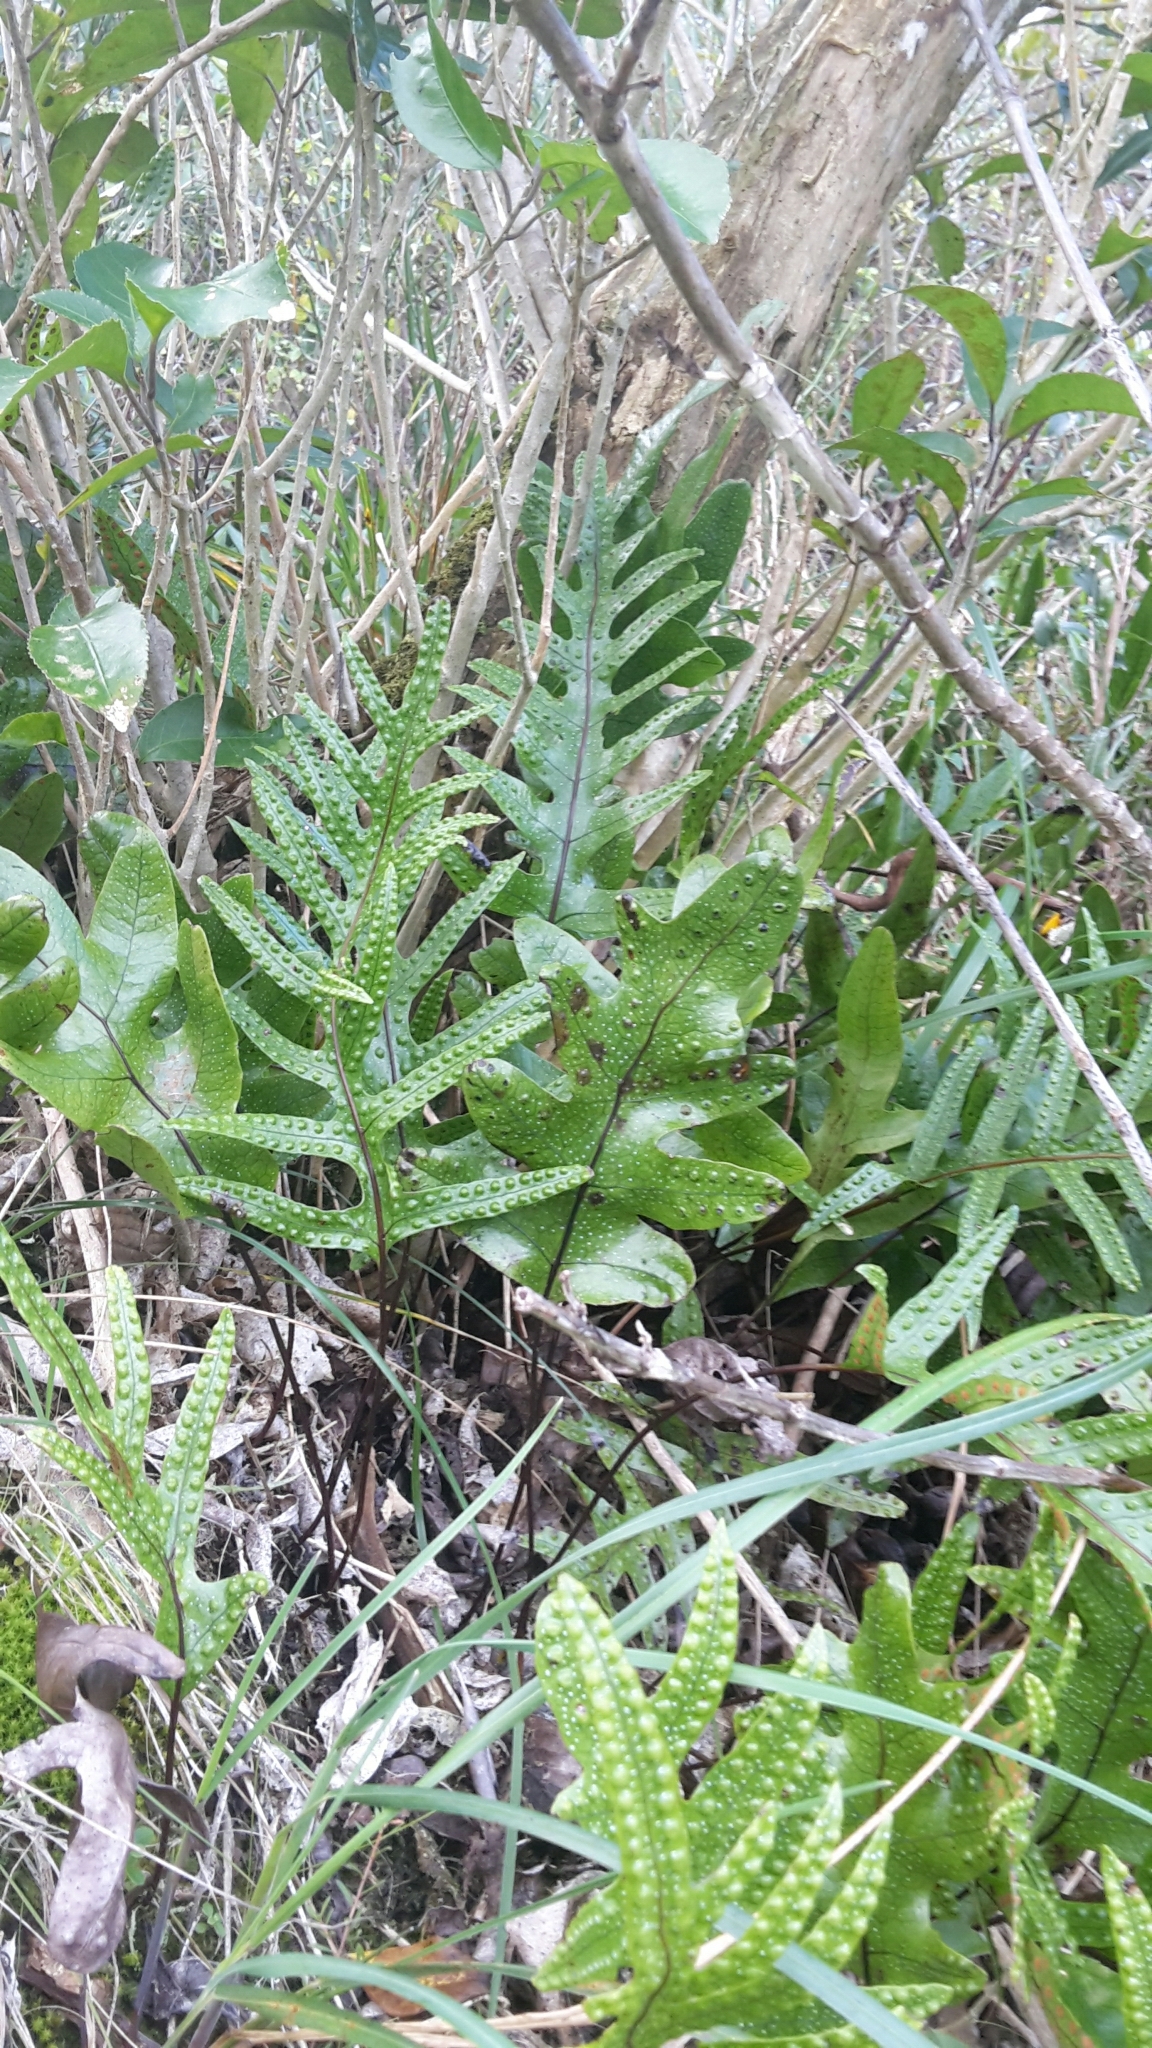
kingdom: Plantae
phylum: Tracheophyta
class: Polypodiopsida
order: Polypodiales
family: Polypodiaceae
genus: Lecanopteris
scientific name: Lecanopteris pustulata
